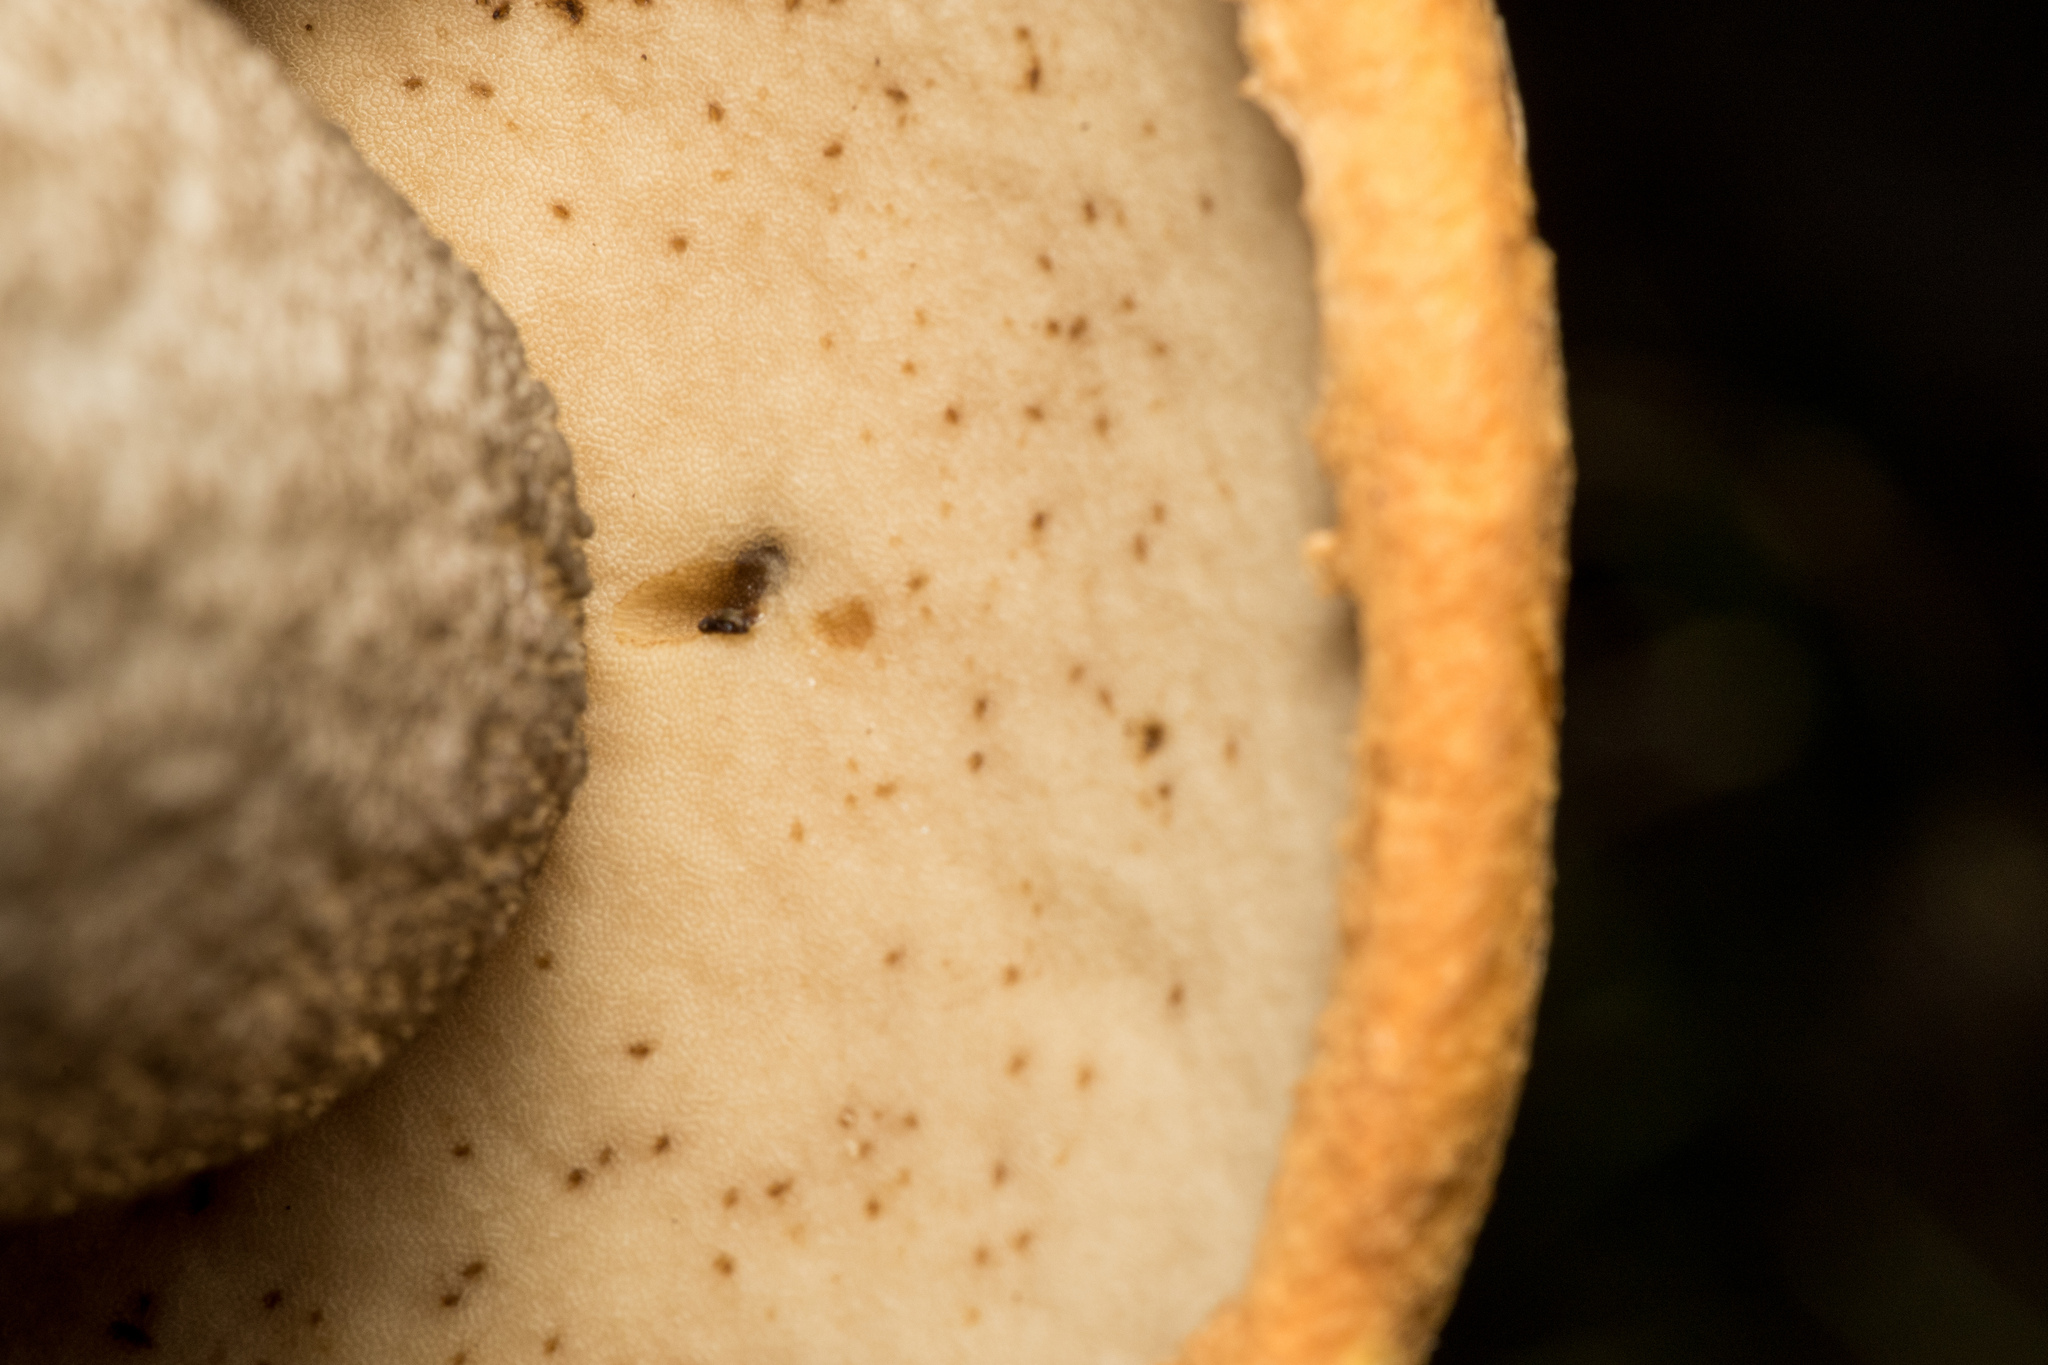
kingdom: Fungi
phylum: Basidiomycota
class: Agaricomycetes
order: Boletales
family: Boletaceae
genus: Leccinum
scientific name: Leccinum versipelle
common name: Orange birch bolete
